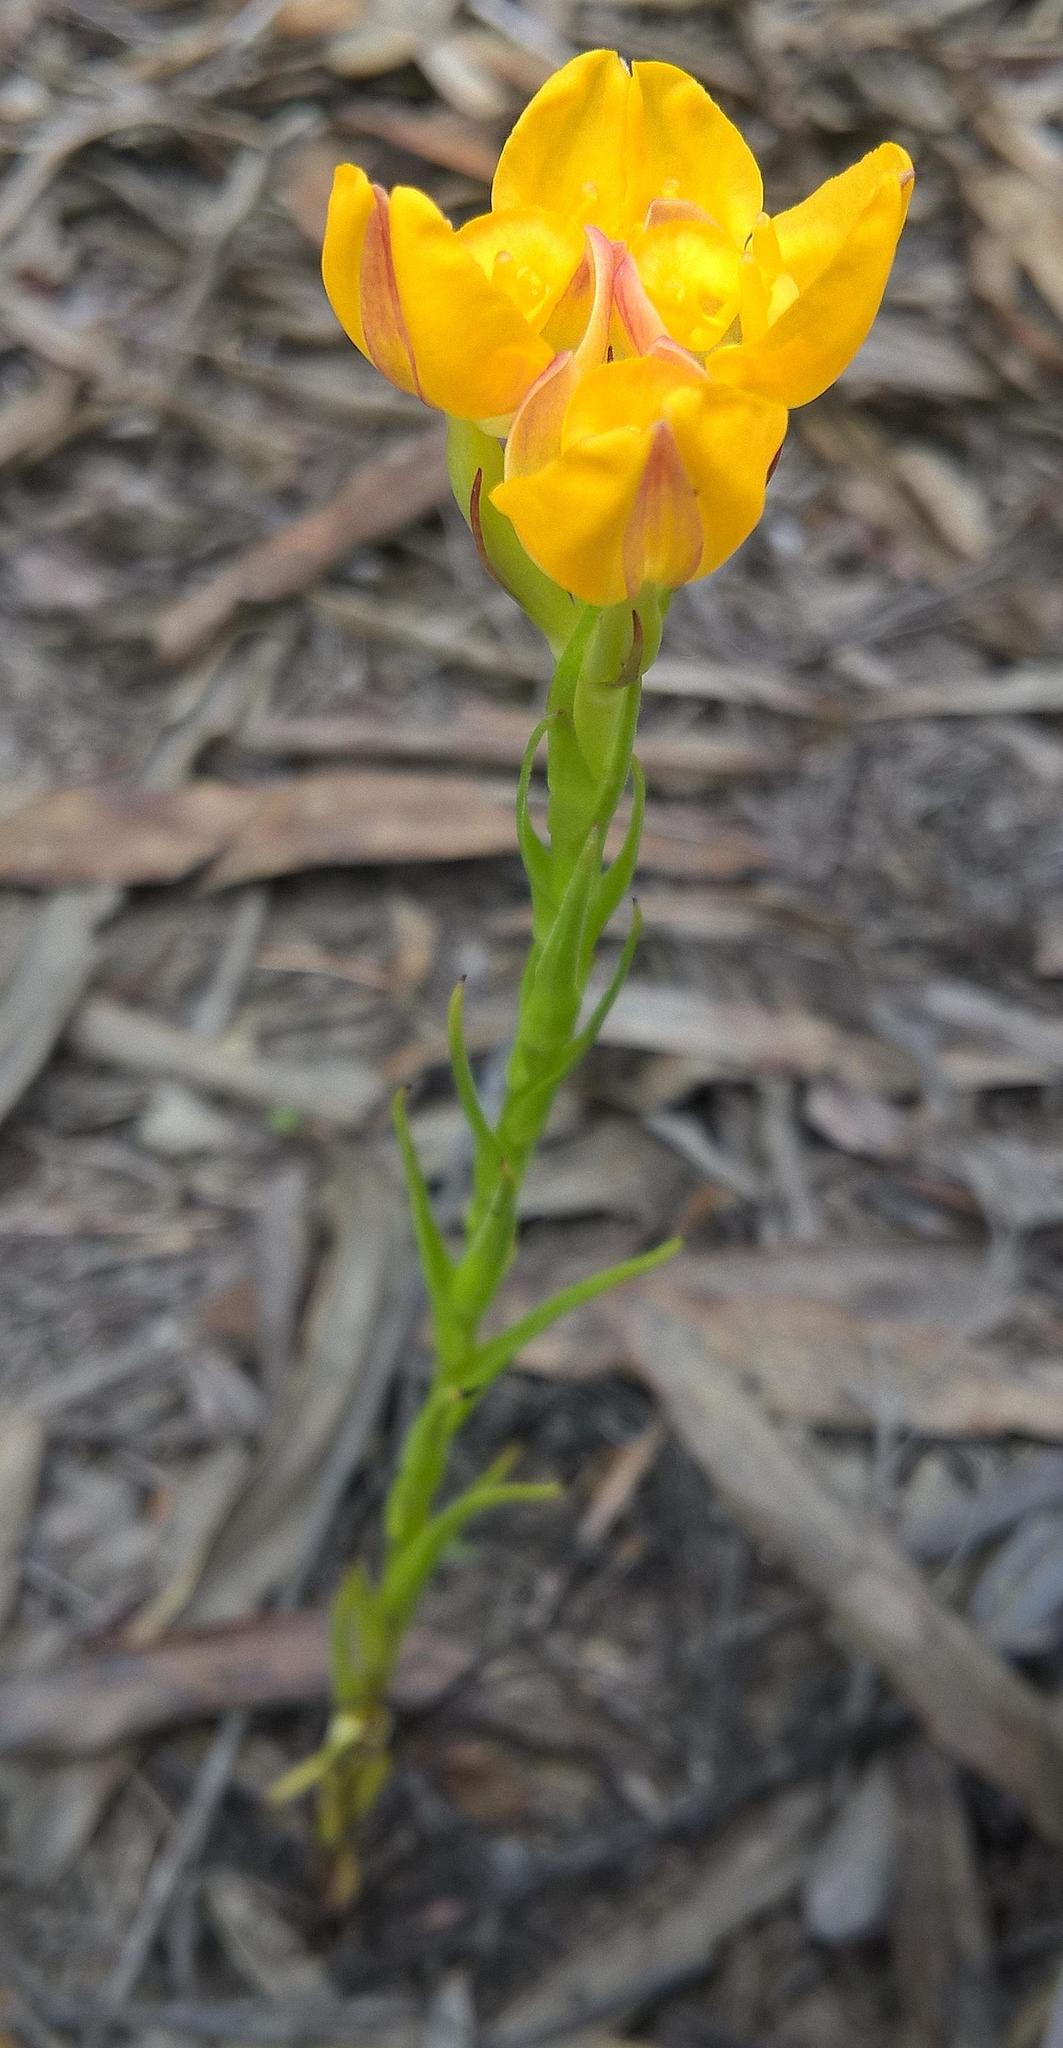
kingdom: Plantae
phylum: Tracheophyta
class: Liliopsida
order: Asparagales
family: Orchidaceae
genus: Ceratandra
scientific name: Ceratandra grandiflora
